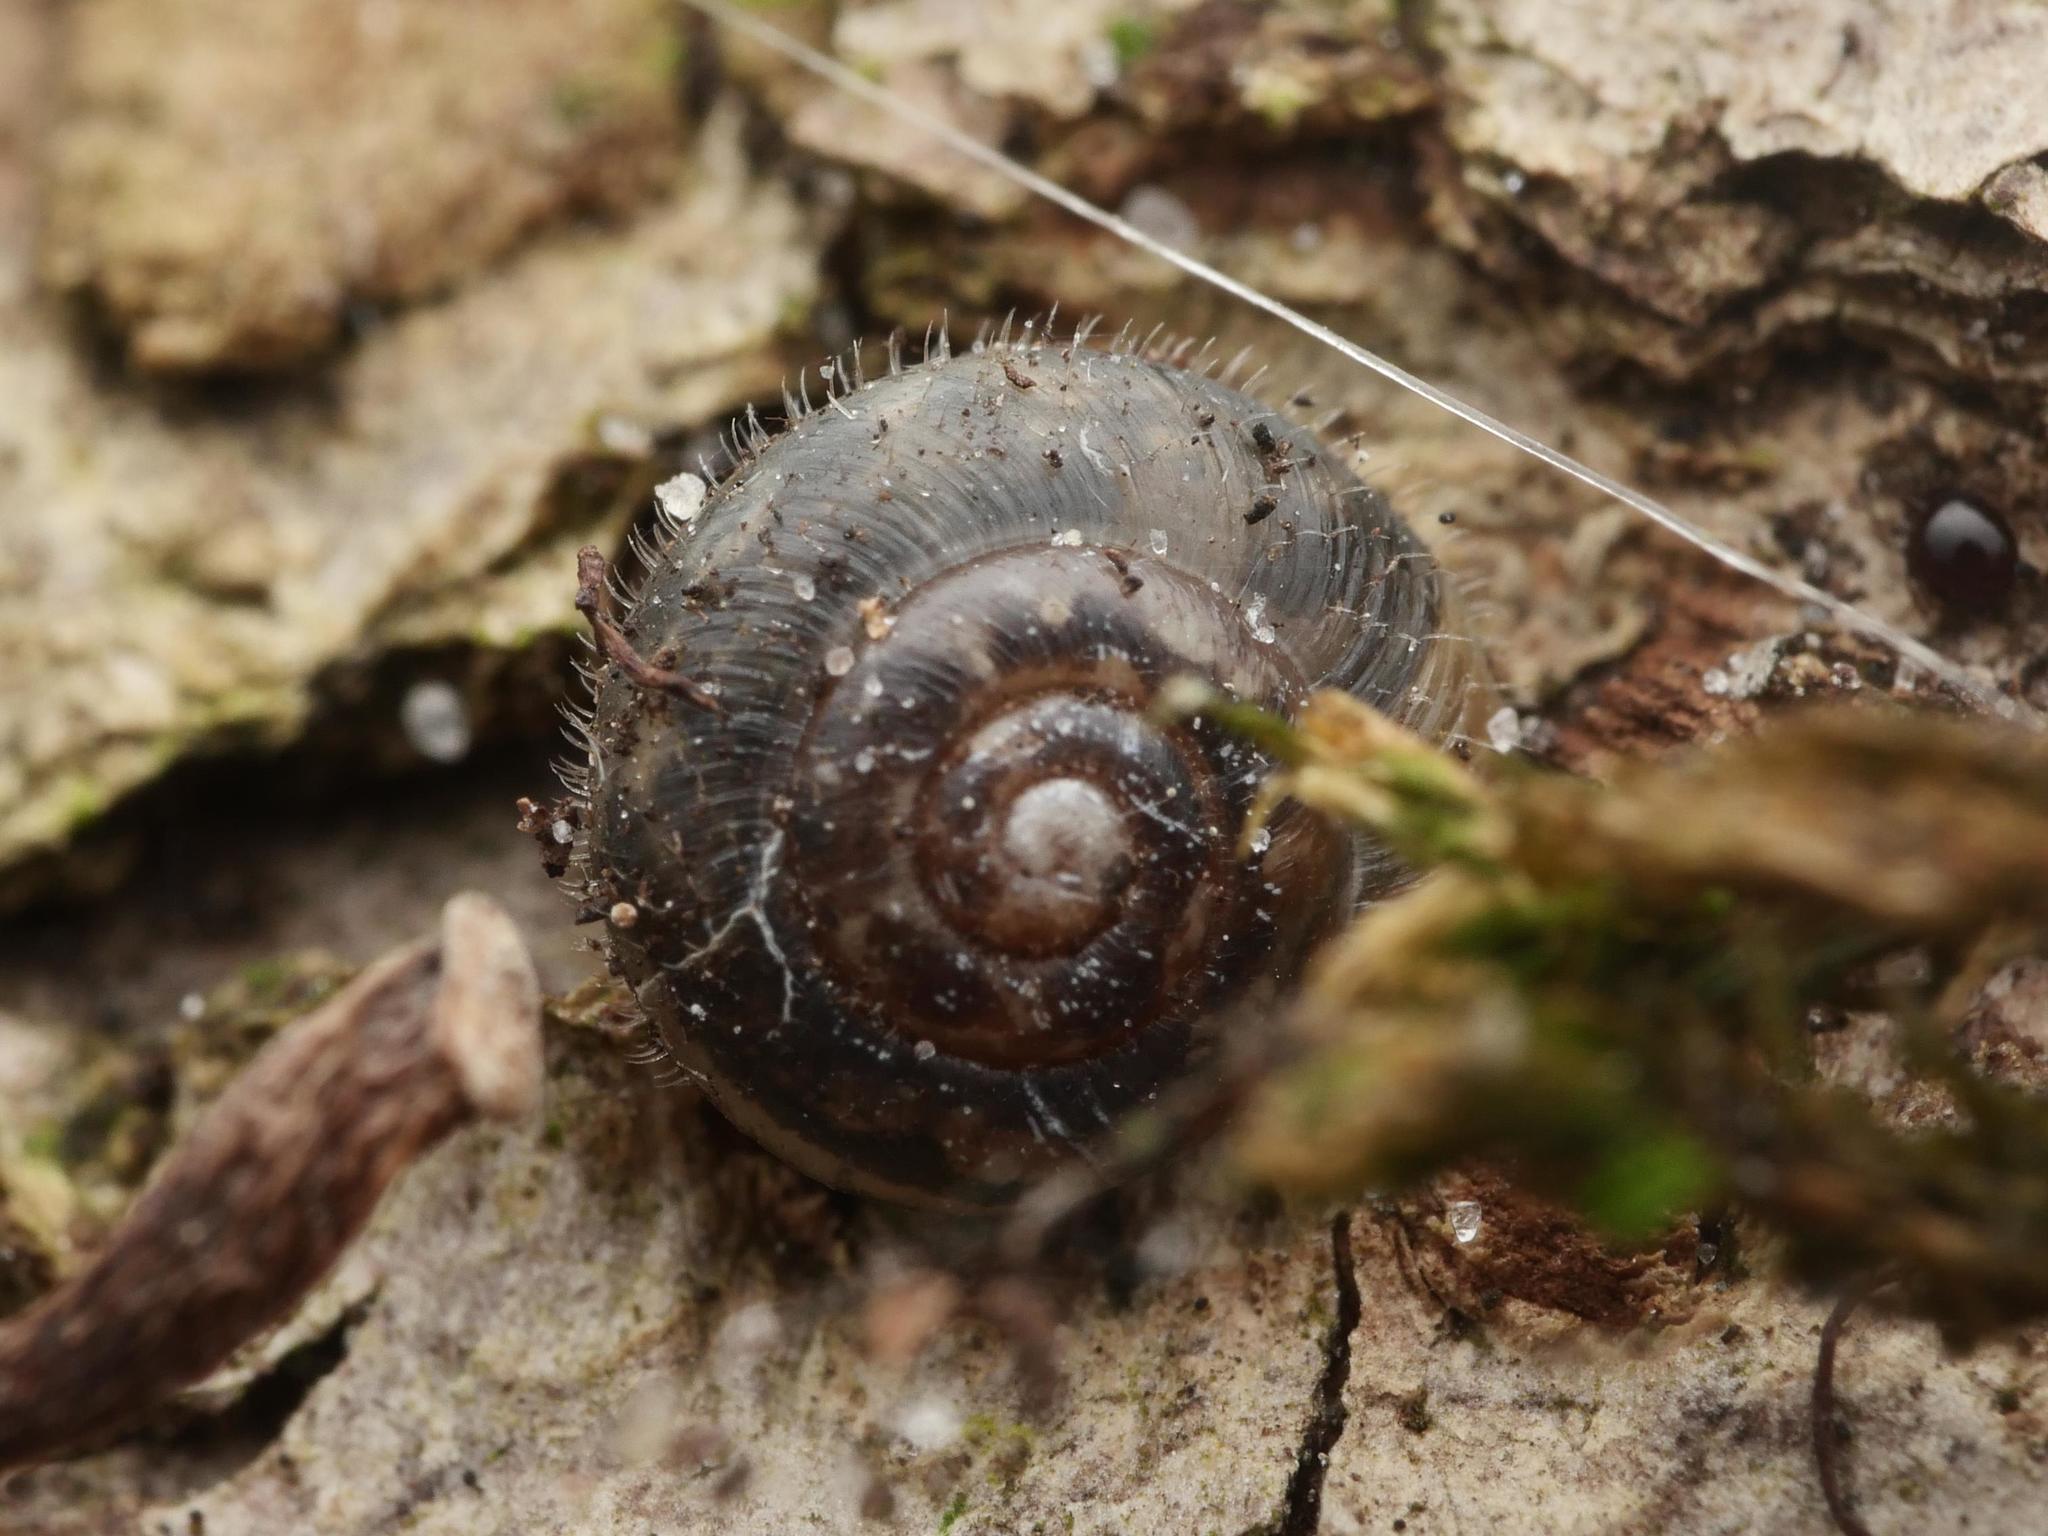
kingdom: Animalia
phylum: Mollusca
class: Gastropoda
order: Stylommatophora
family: Hygromiidae
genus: Trochulus
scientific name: Trochulus hispidus
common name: Hairy snail
